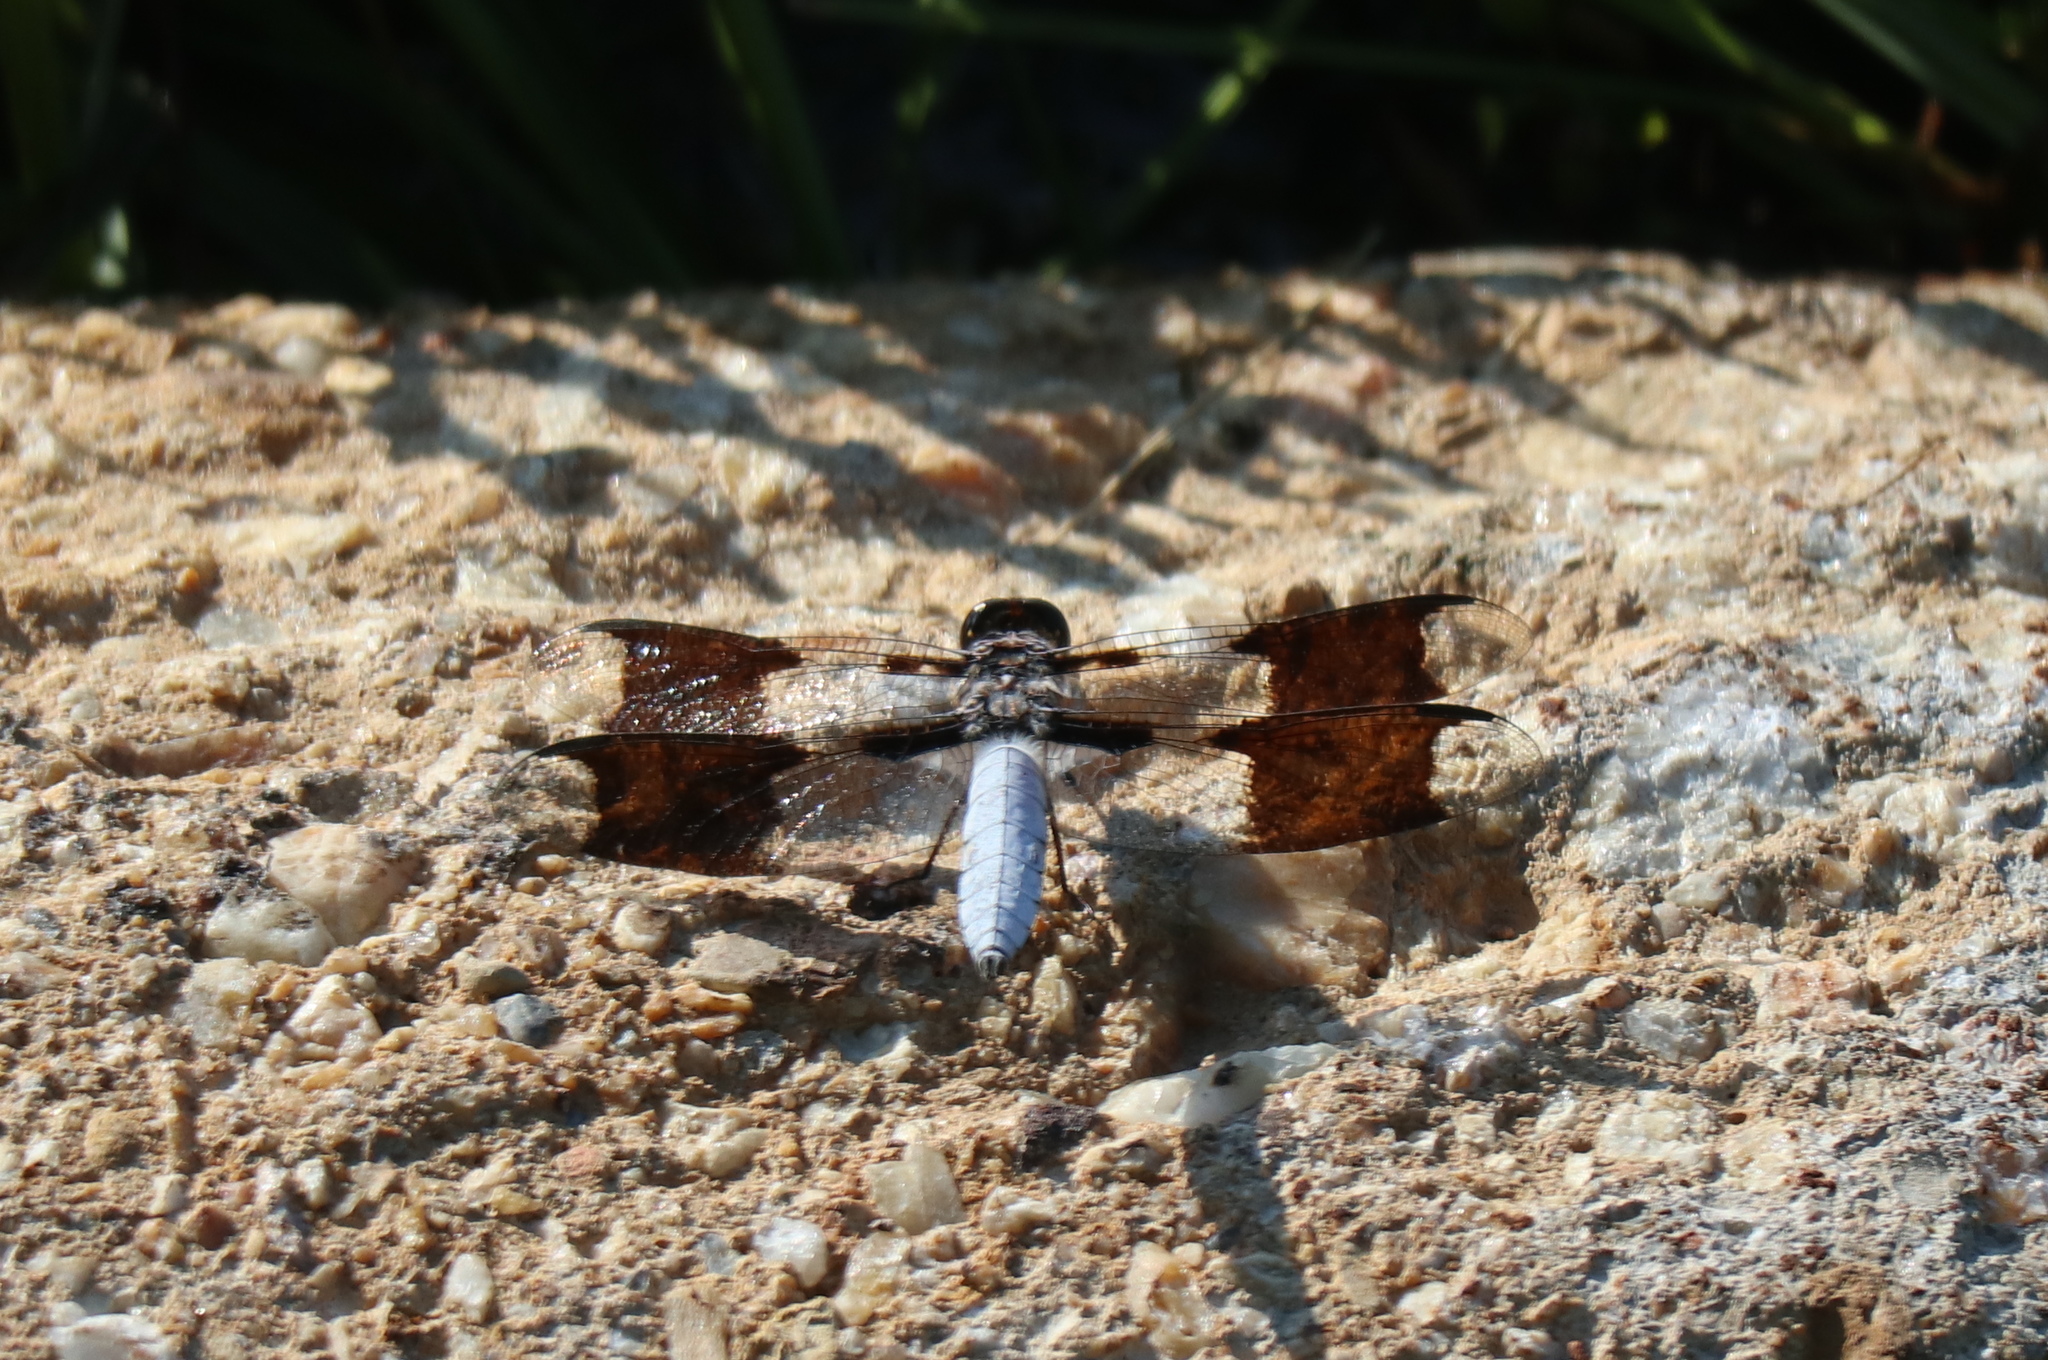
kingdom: Animalia
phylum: Arthropoda
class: Insecta
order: Odonata
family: Libellulidae
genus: Plathemis
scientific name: Plathemis lydia
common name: Common whitetail
